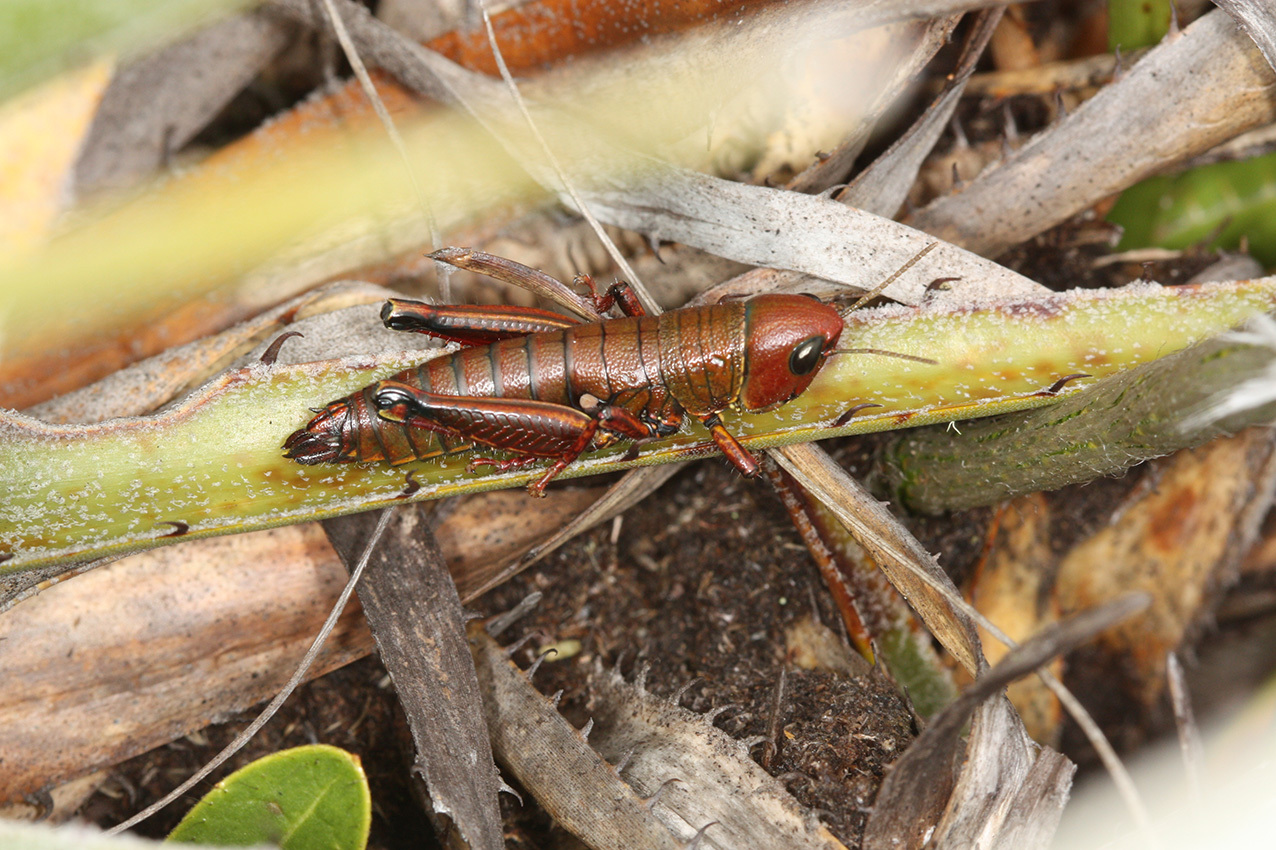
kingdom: Animalia
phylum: Arthropoda
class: Insecta
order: Orthoptera
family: Romaleidae
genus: Quitus
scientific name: Quitus podocarpus
